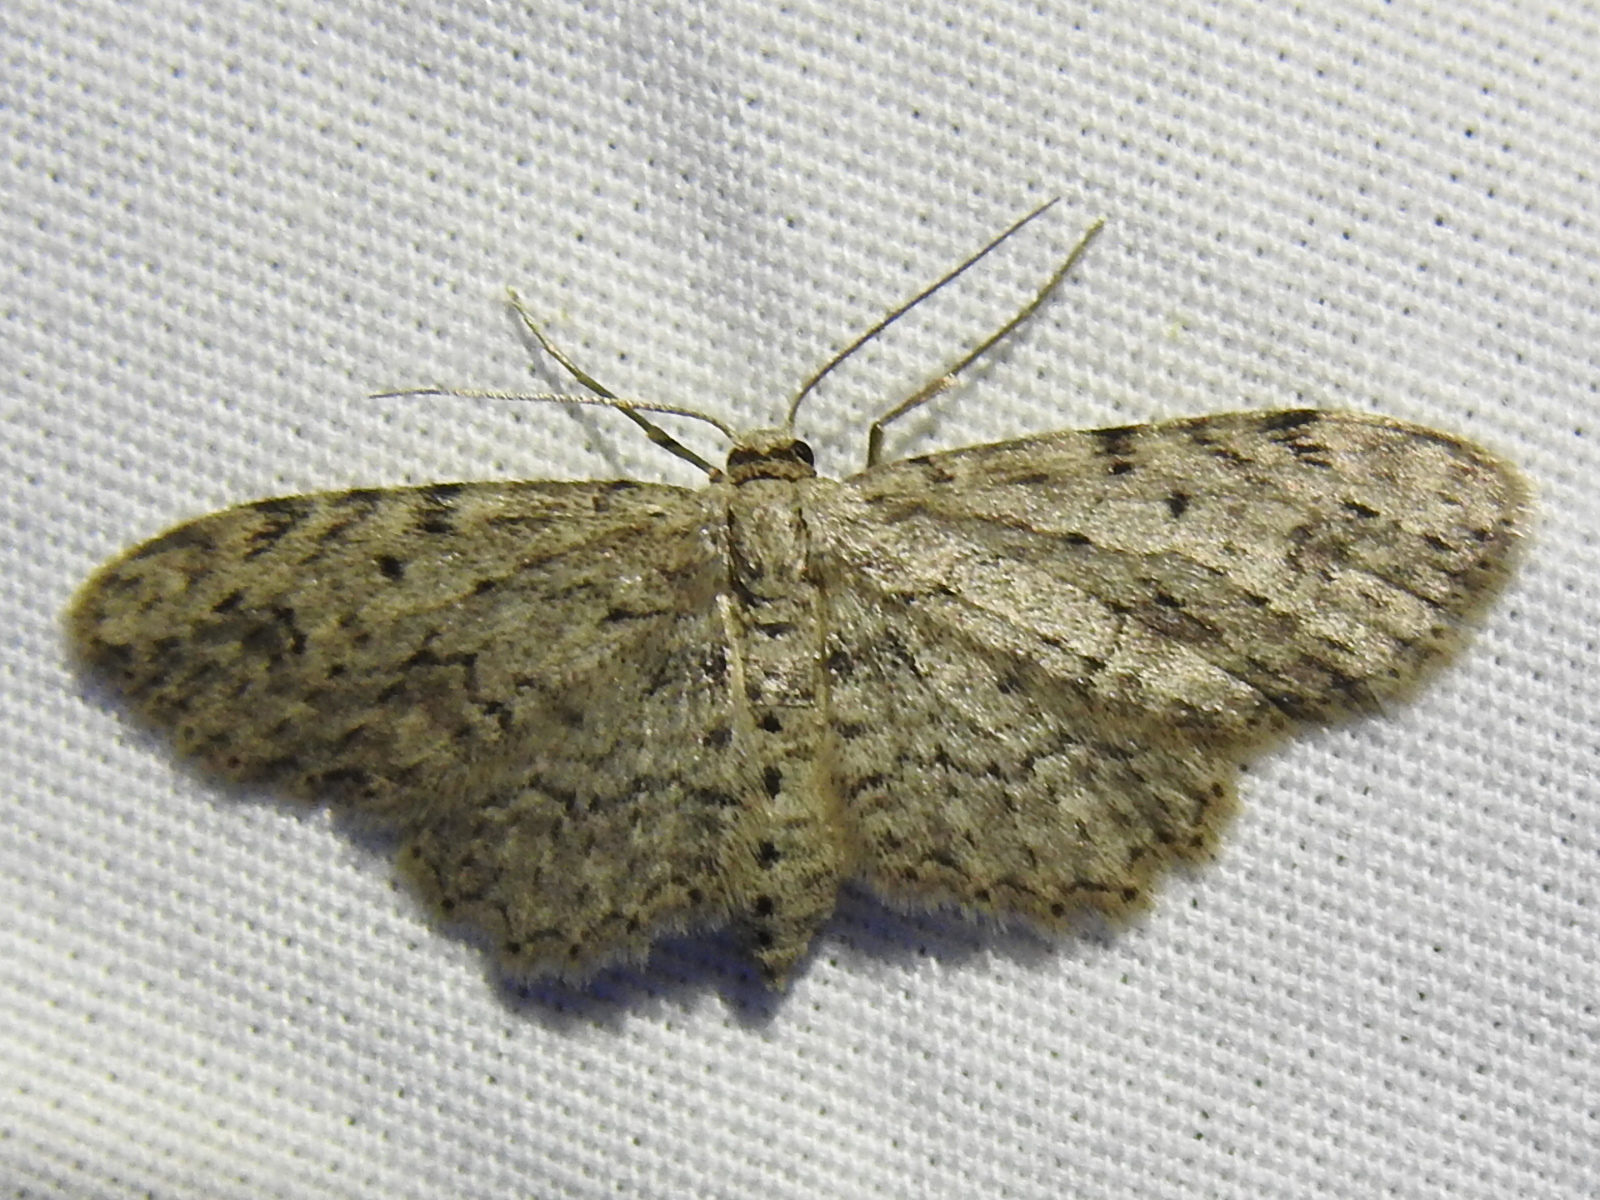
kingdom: Animalia
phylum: Arthropoda
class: Insecta
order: Lepidoptera
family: Geometridae
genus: Pimaphera
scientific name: Pimaphera sparsaria
